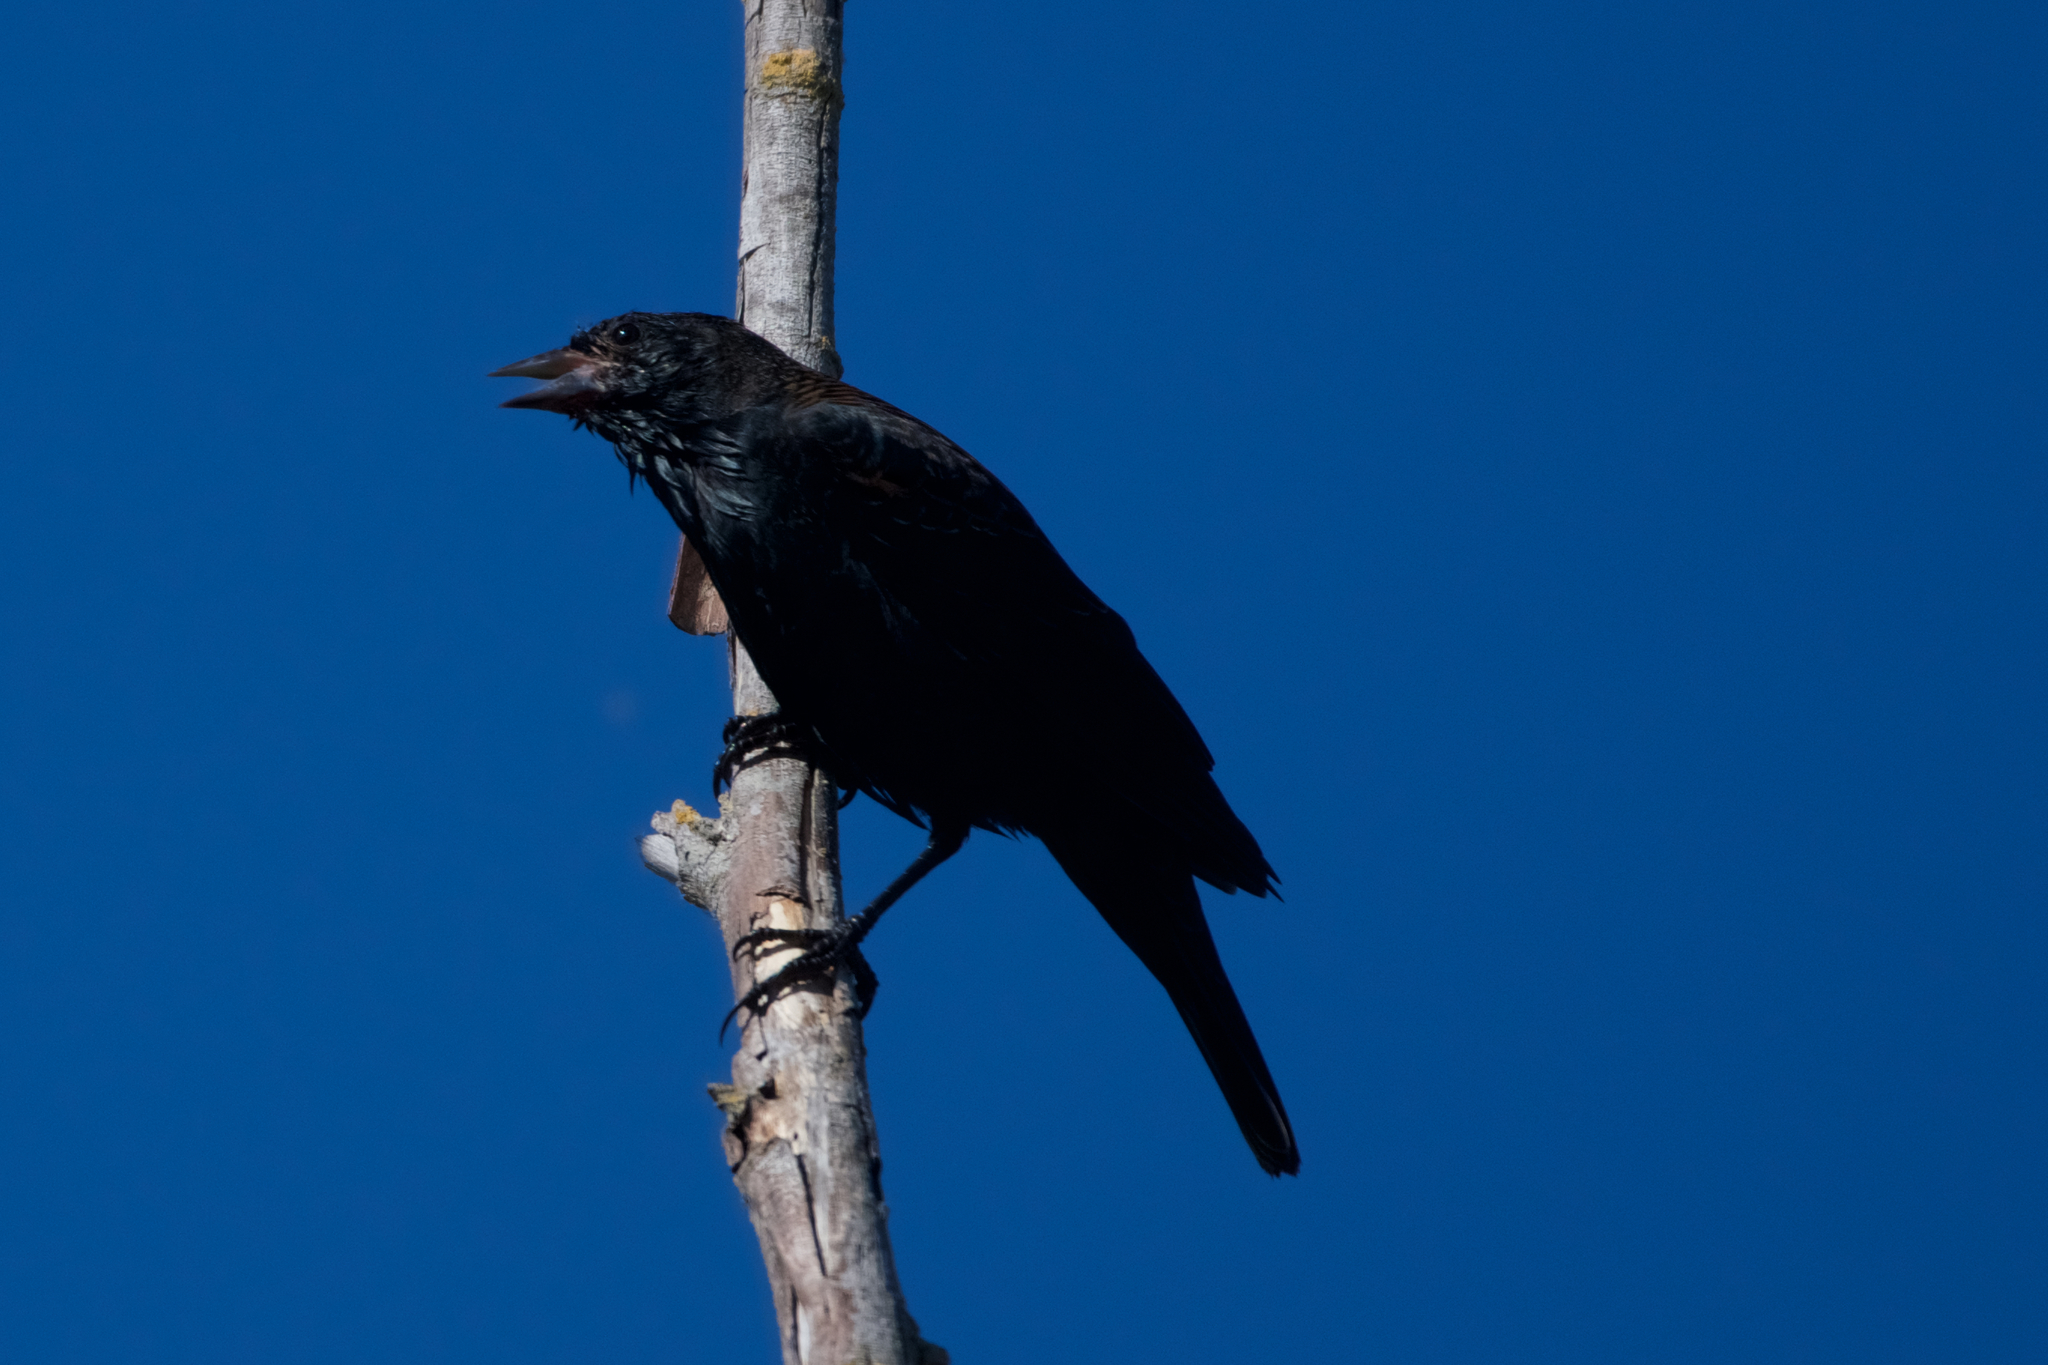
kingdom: Animalia
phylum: Chordata
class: Aves
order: Passeriformes
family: Icteridae
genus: Agelaius
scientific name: Agelaius phoeniceus
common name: Red-winged blackbird
